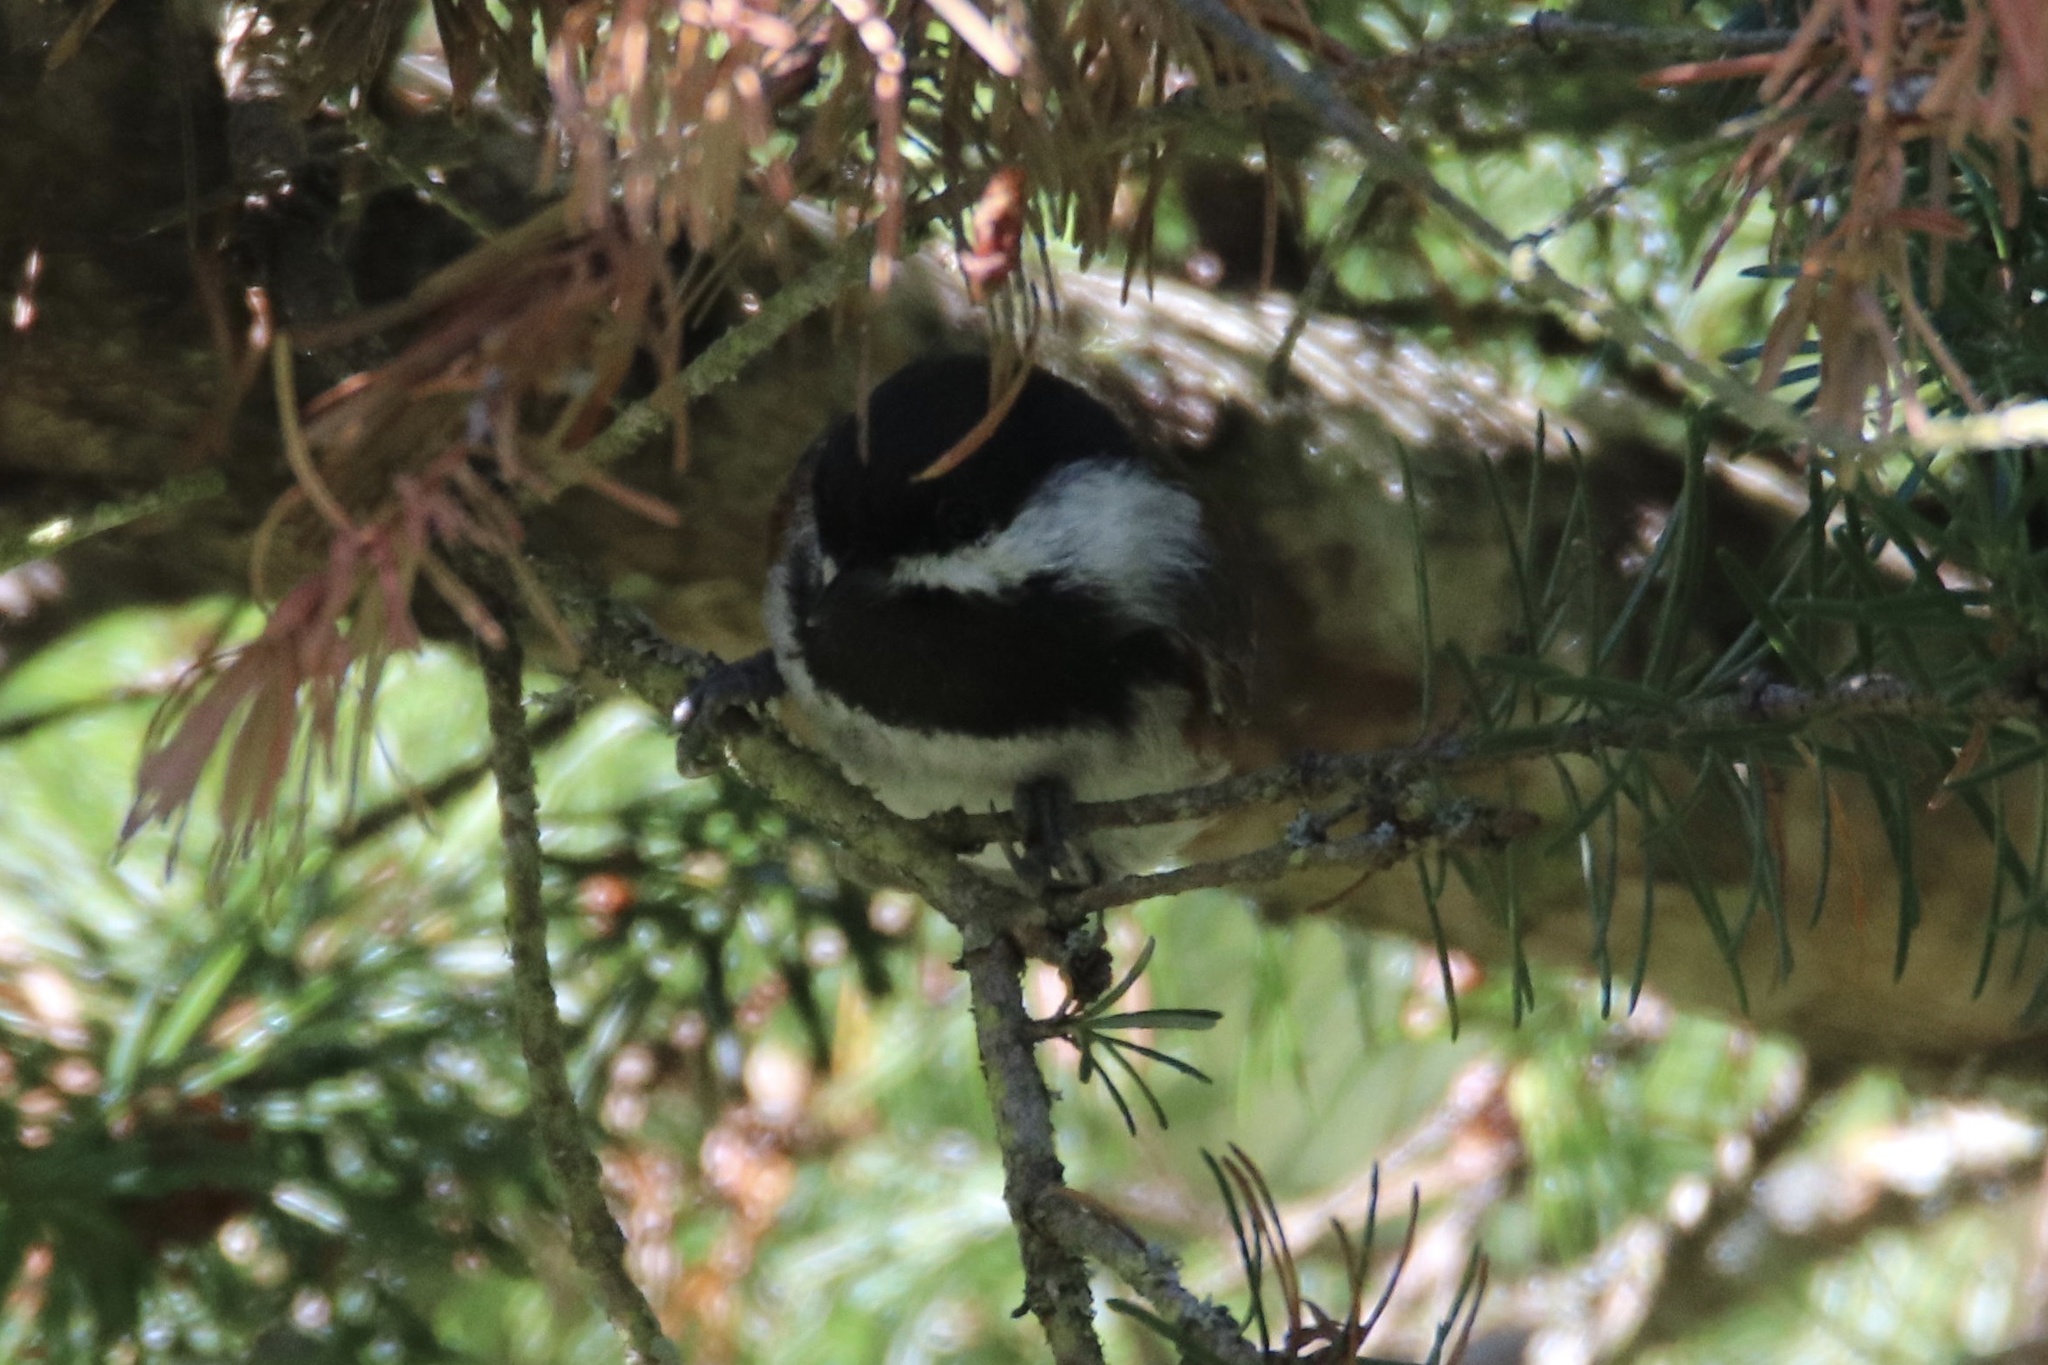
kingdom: Animalia
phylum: Chordata
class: Aves
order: Passeriformes
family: Paridae
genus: Poecile
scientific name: Poecile rufescens
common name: Chestnut-backed chickadee
